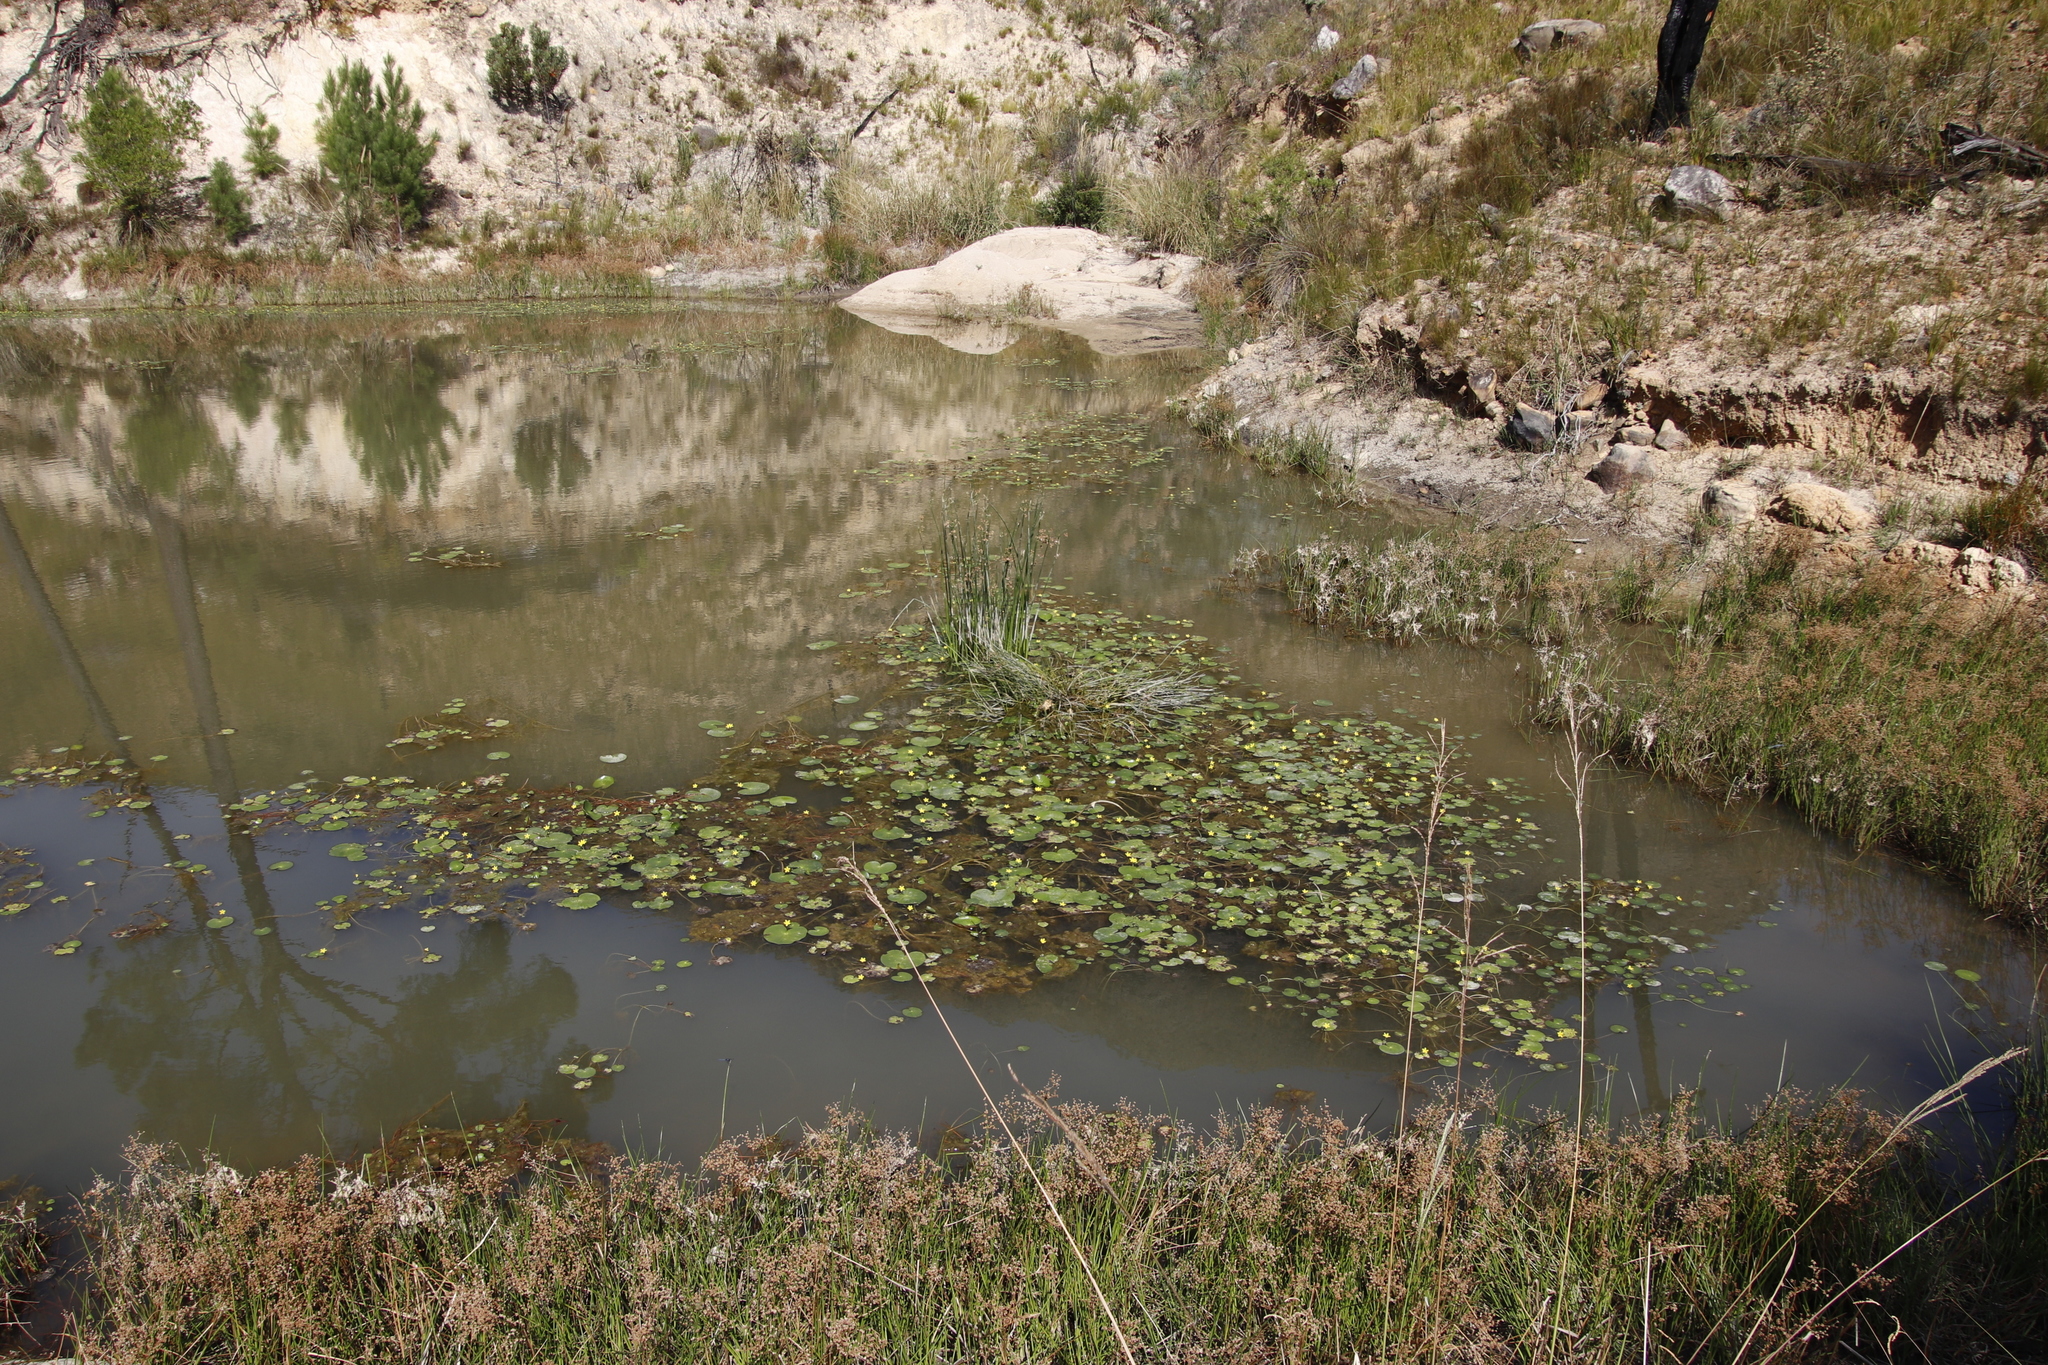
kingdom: Plantae
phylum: Tracheophyta
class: Magnoliopsida
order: Asterales
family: Menyanthaceae
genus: Nymphoides
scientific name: Nymphoides thunbergiana
